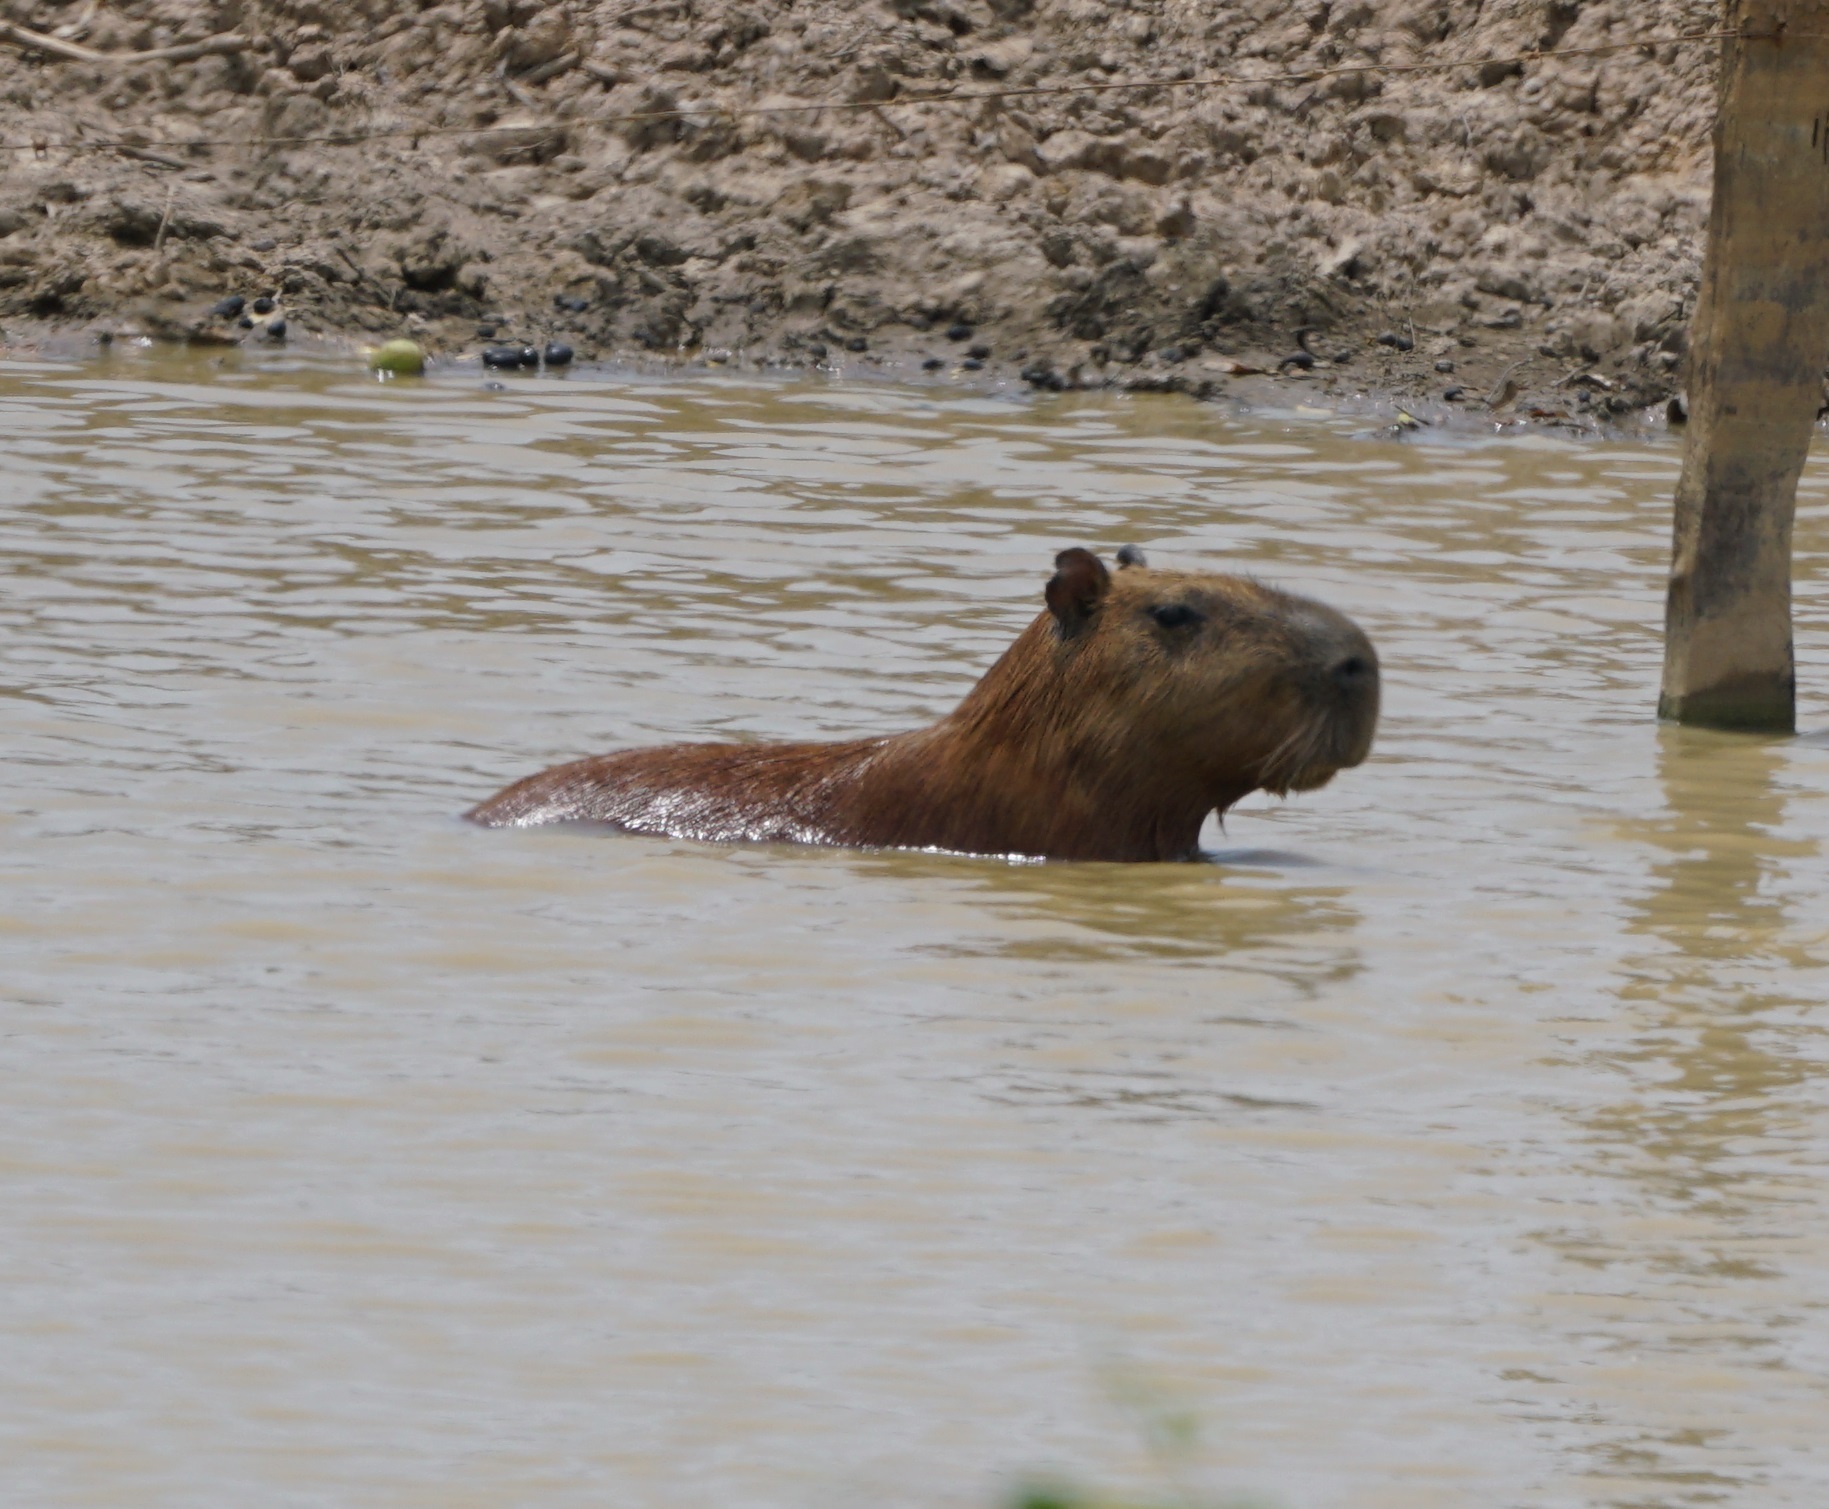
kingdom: Animalia
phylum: Chordata
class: Mammalia
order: Rodentia
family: Caviidae
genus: Hydrochoerus
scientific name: Hydrochoerus hydrochaeris
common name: Capybara
